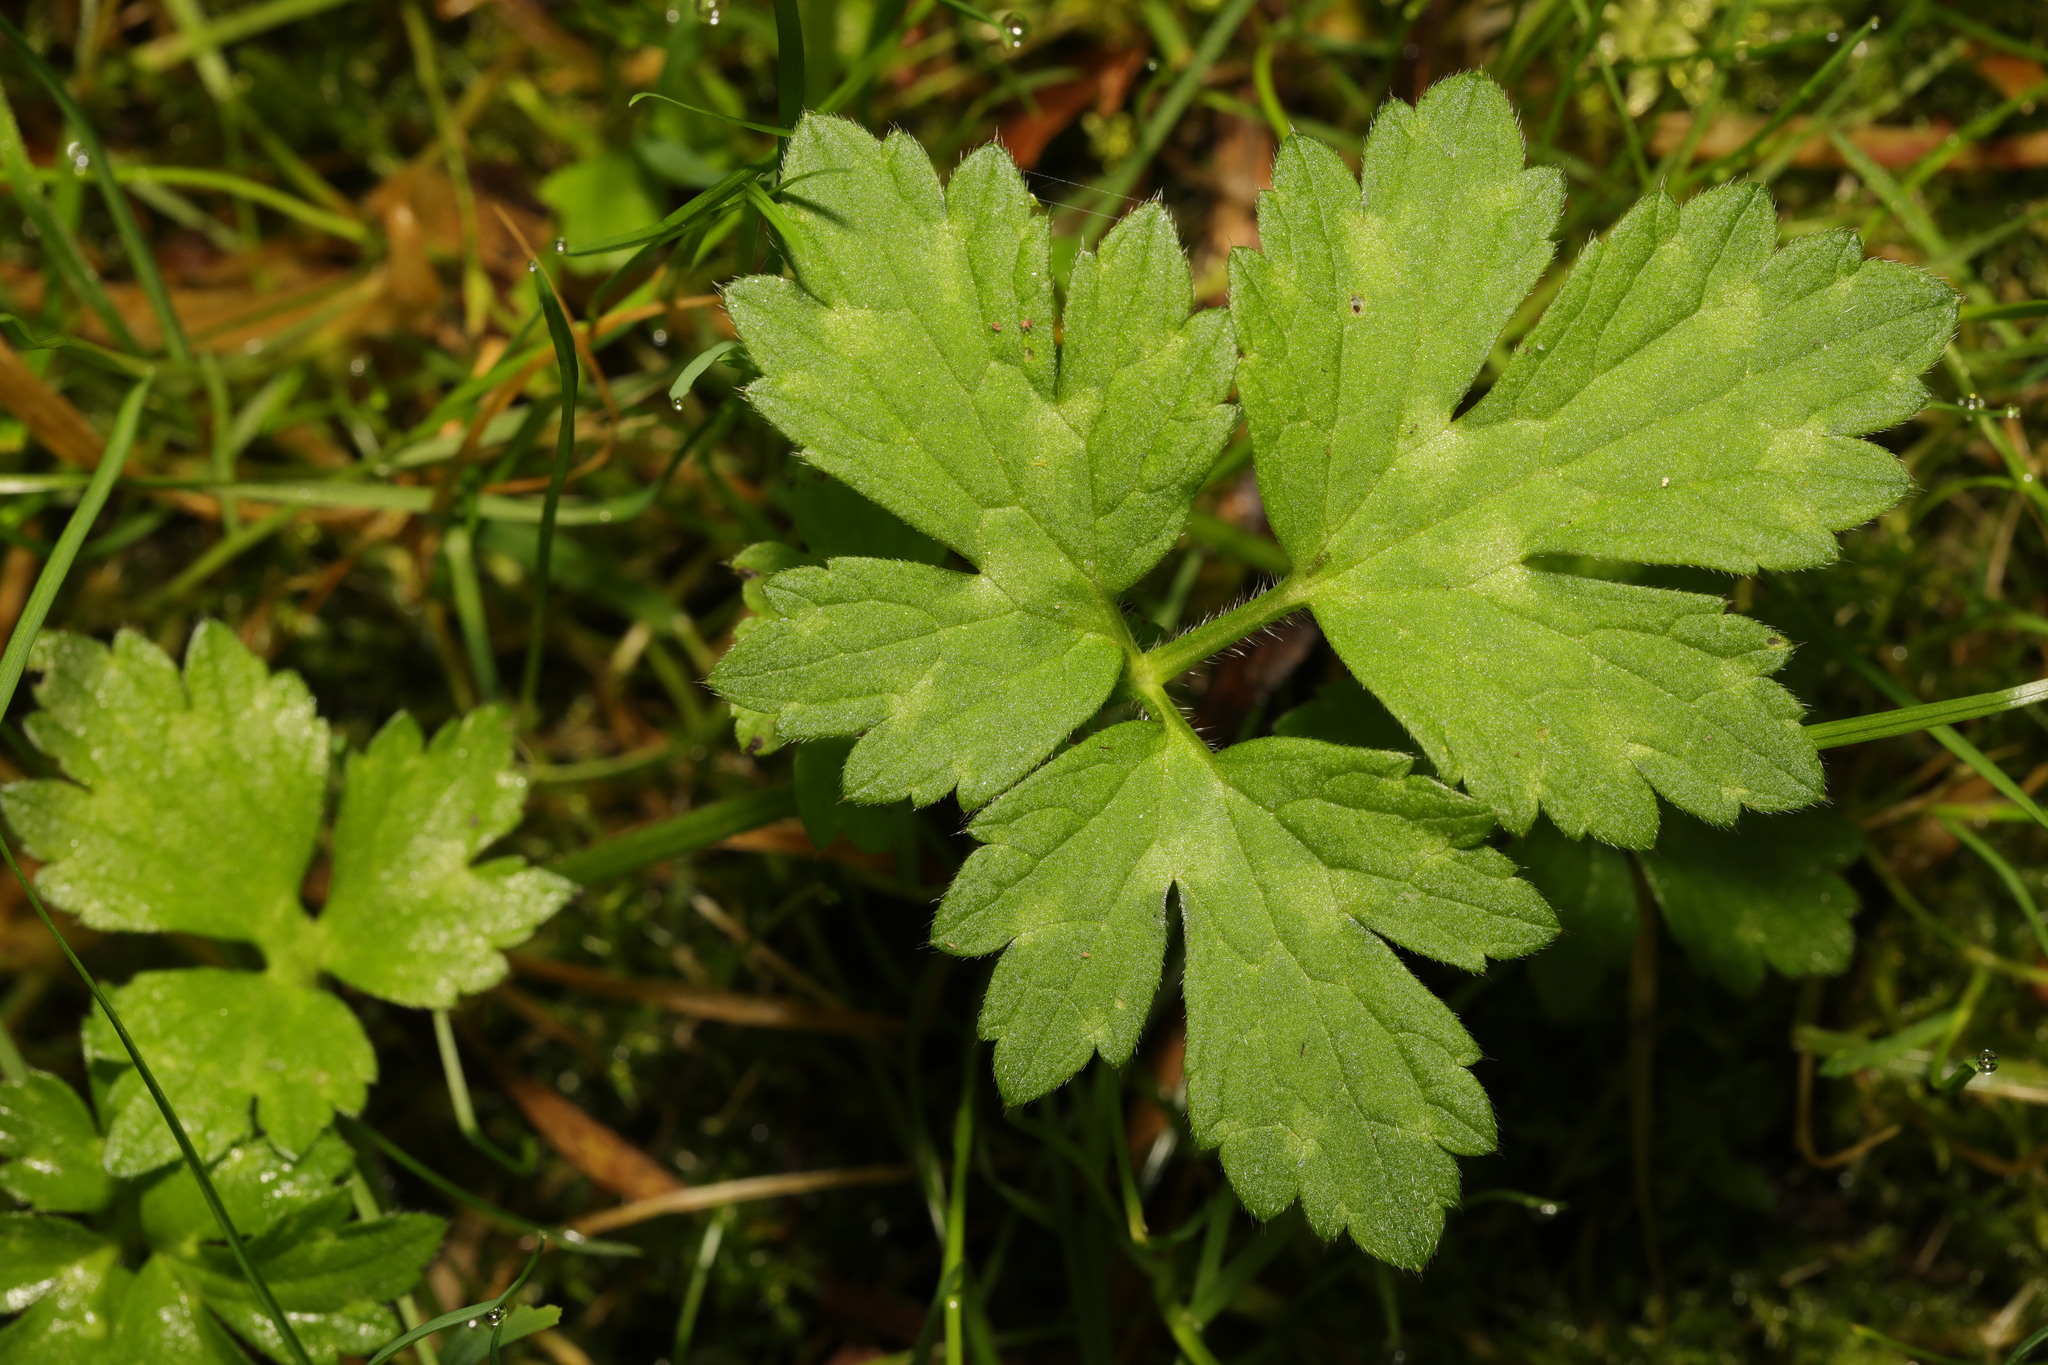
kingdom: Plantae
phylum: Tracheophyta
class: Magnoliopsida
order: Ranunculales
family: Ranunculaceae
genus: Ranunculus
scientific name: Ranunculus repens
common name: Creeping buttercup
